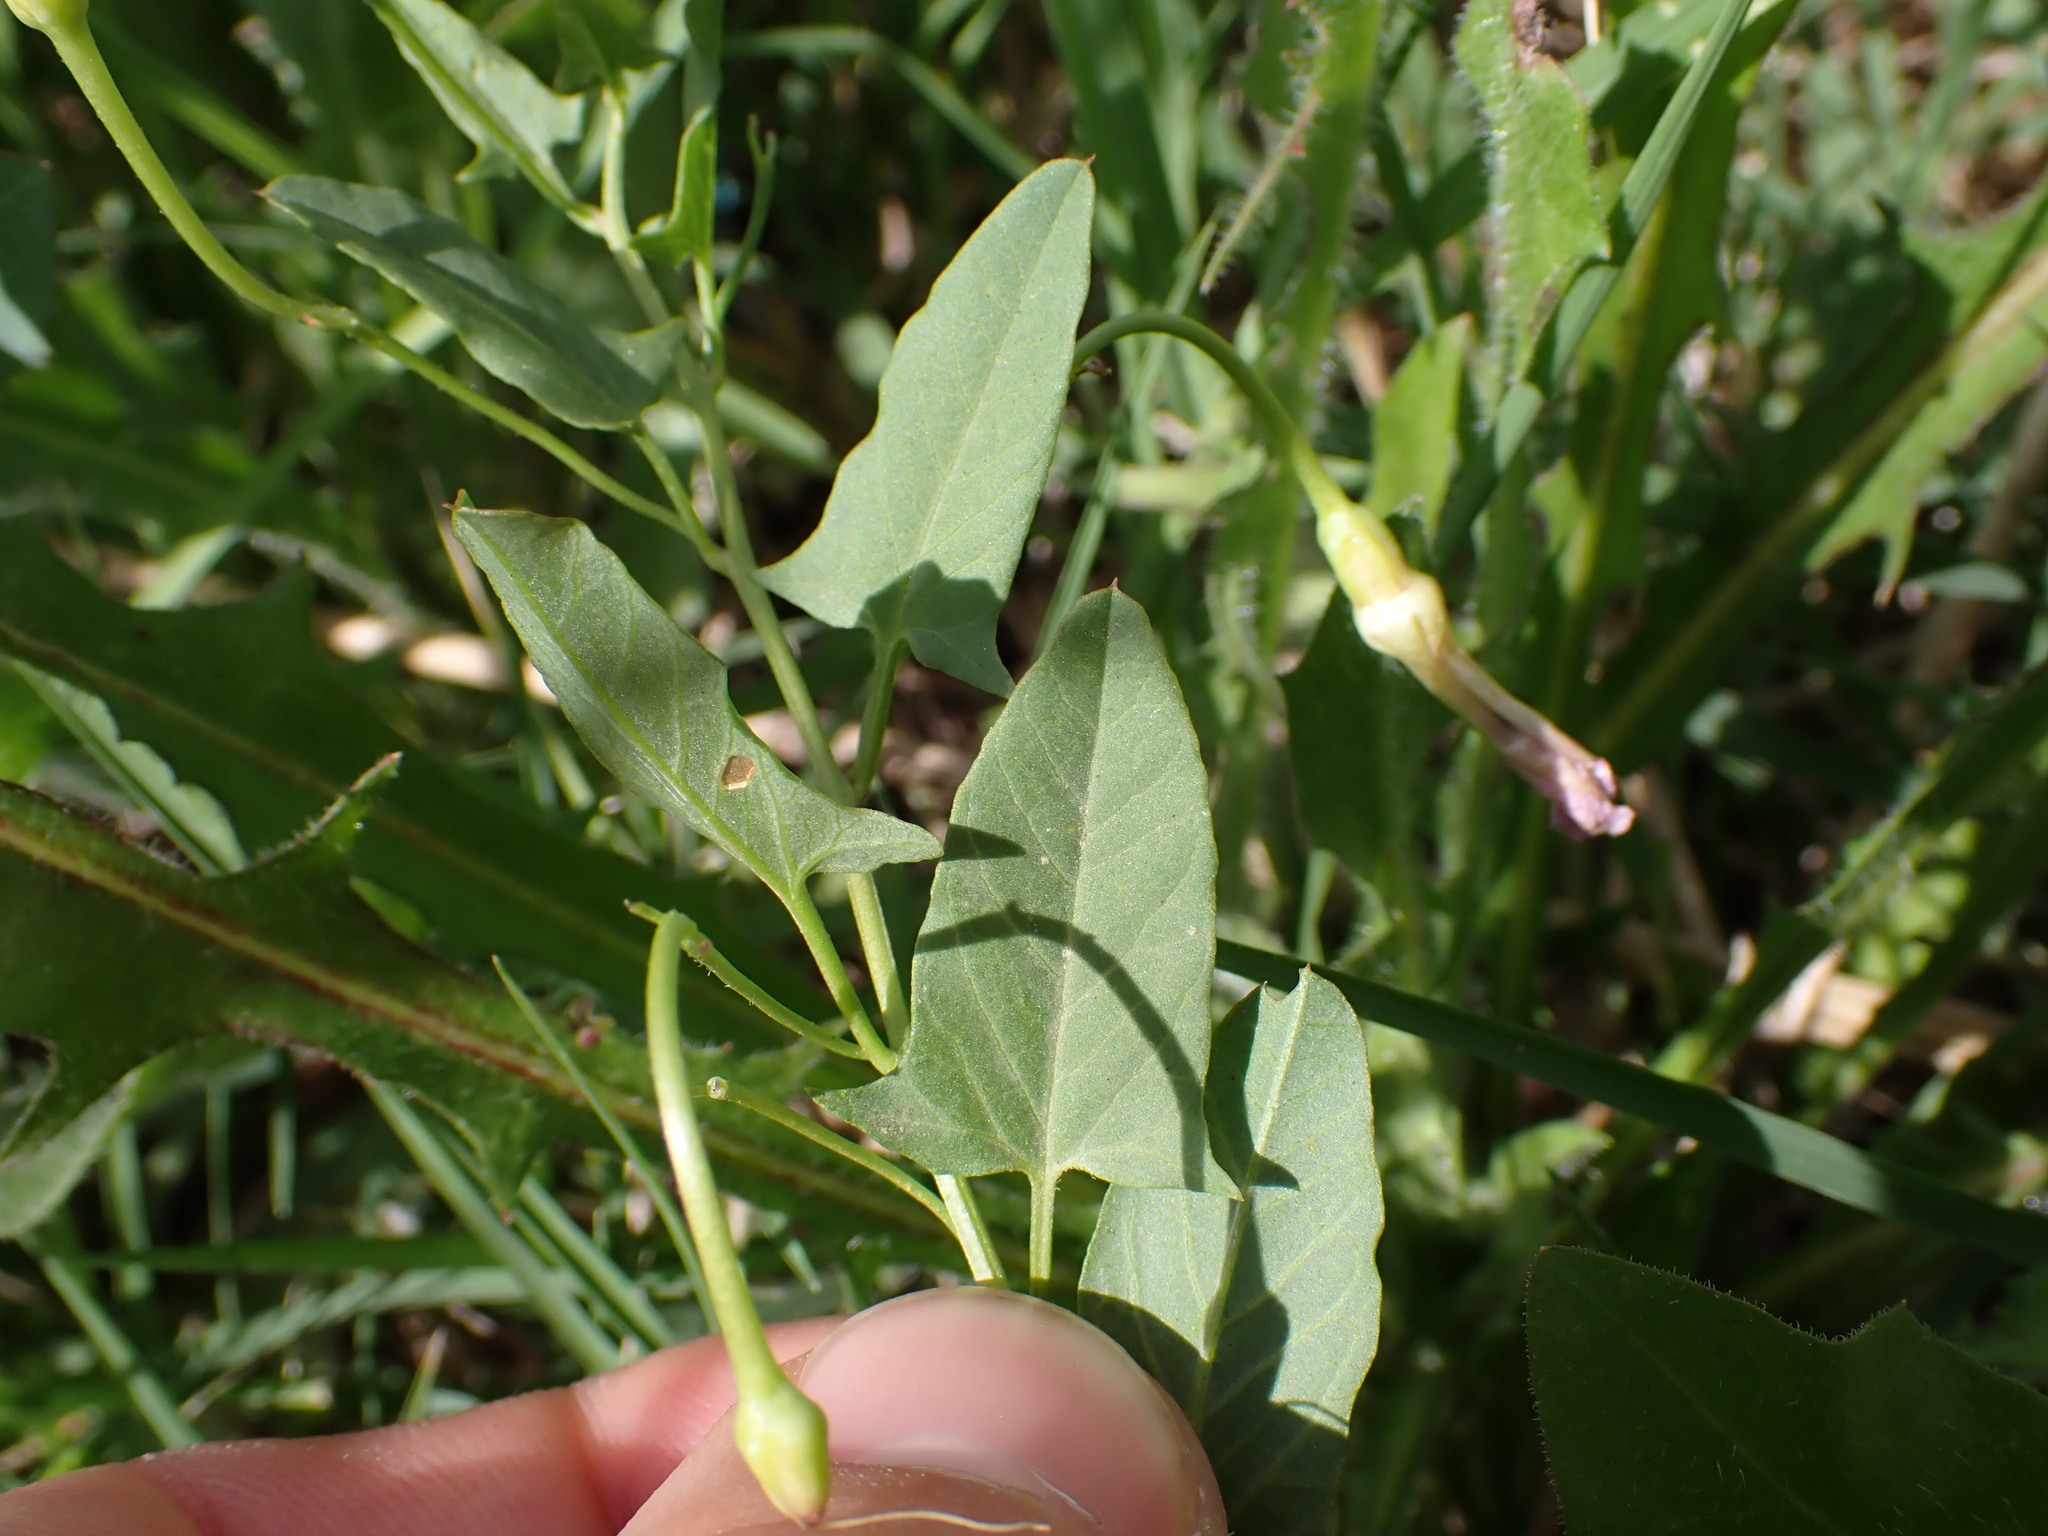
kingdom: Plantae
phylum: Tracheophyta
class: Magnoliopsida
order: Solanales
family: Convolvulaceae
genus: Convolvulus
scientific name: Convolvulus arvensis
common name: Field bindweed
